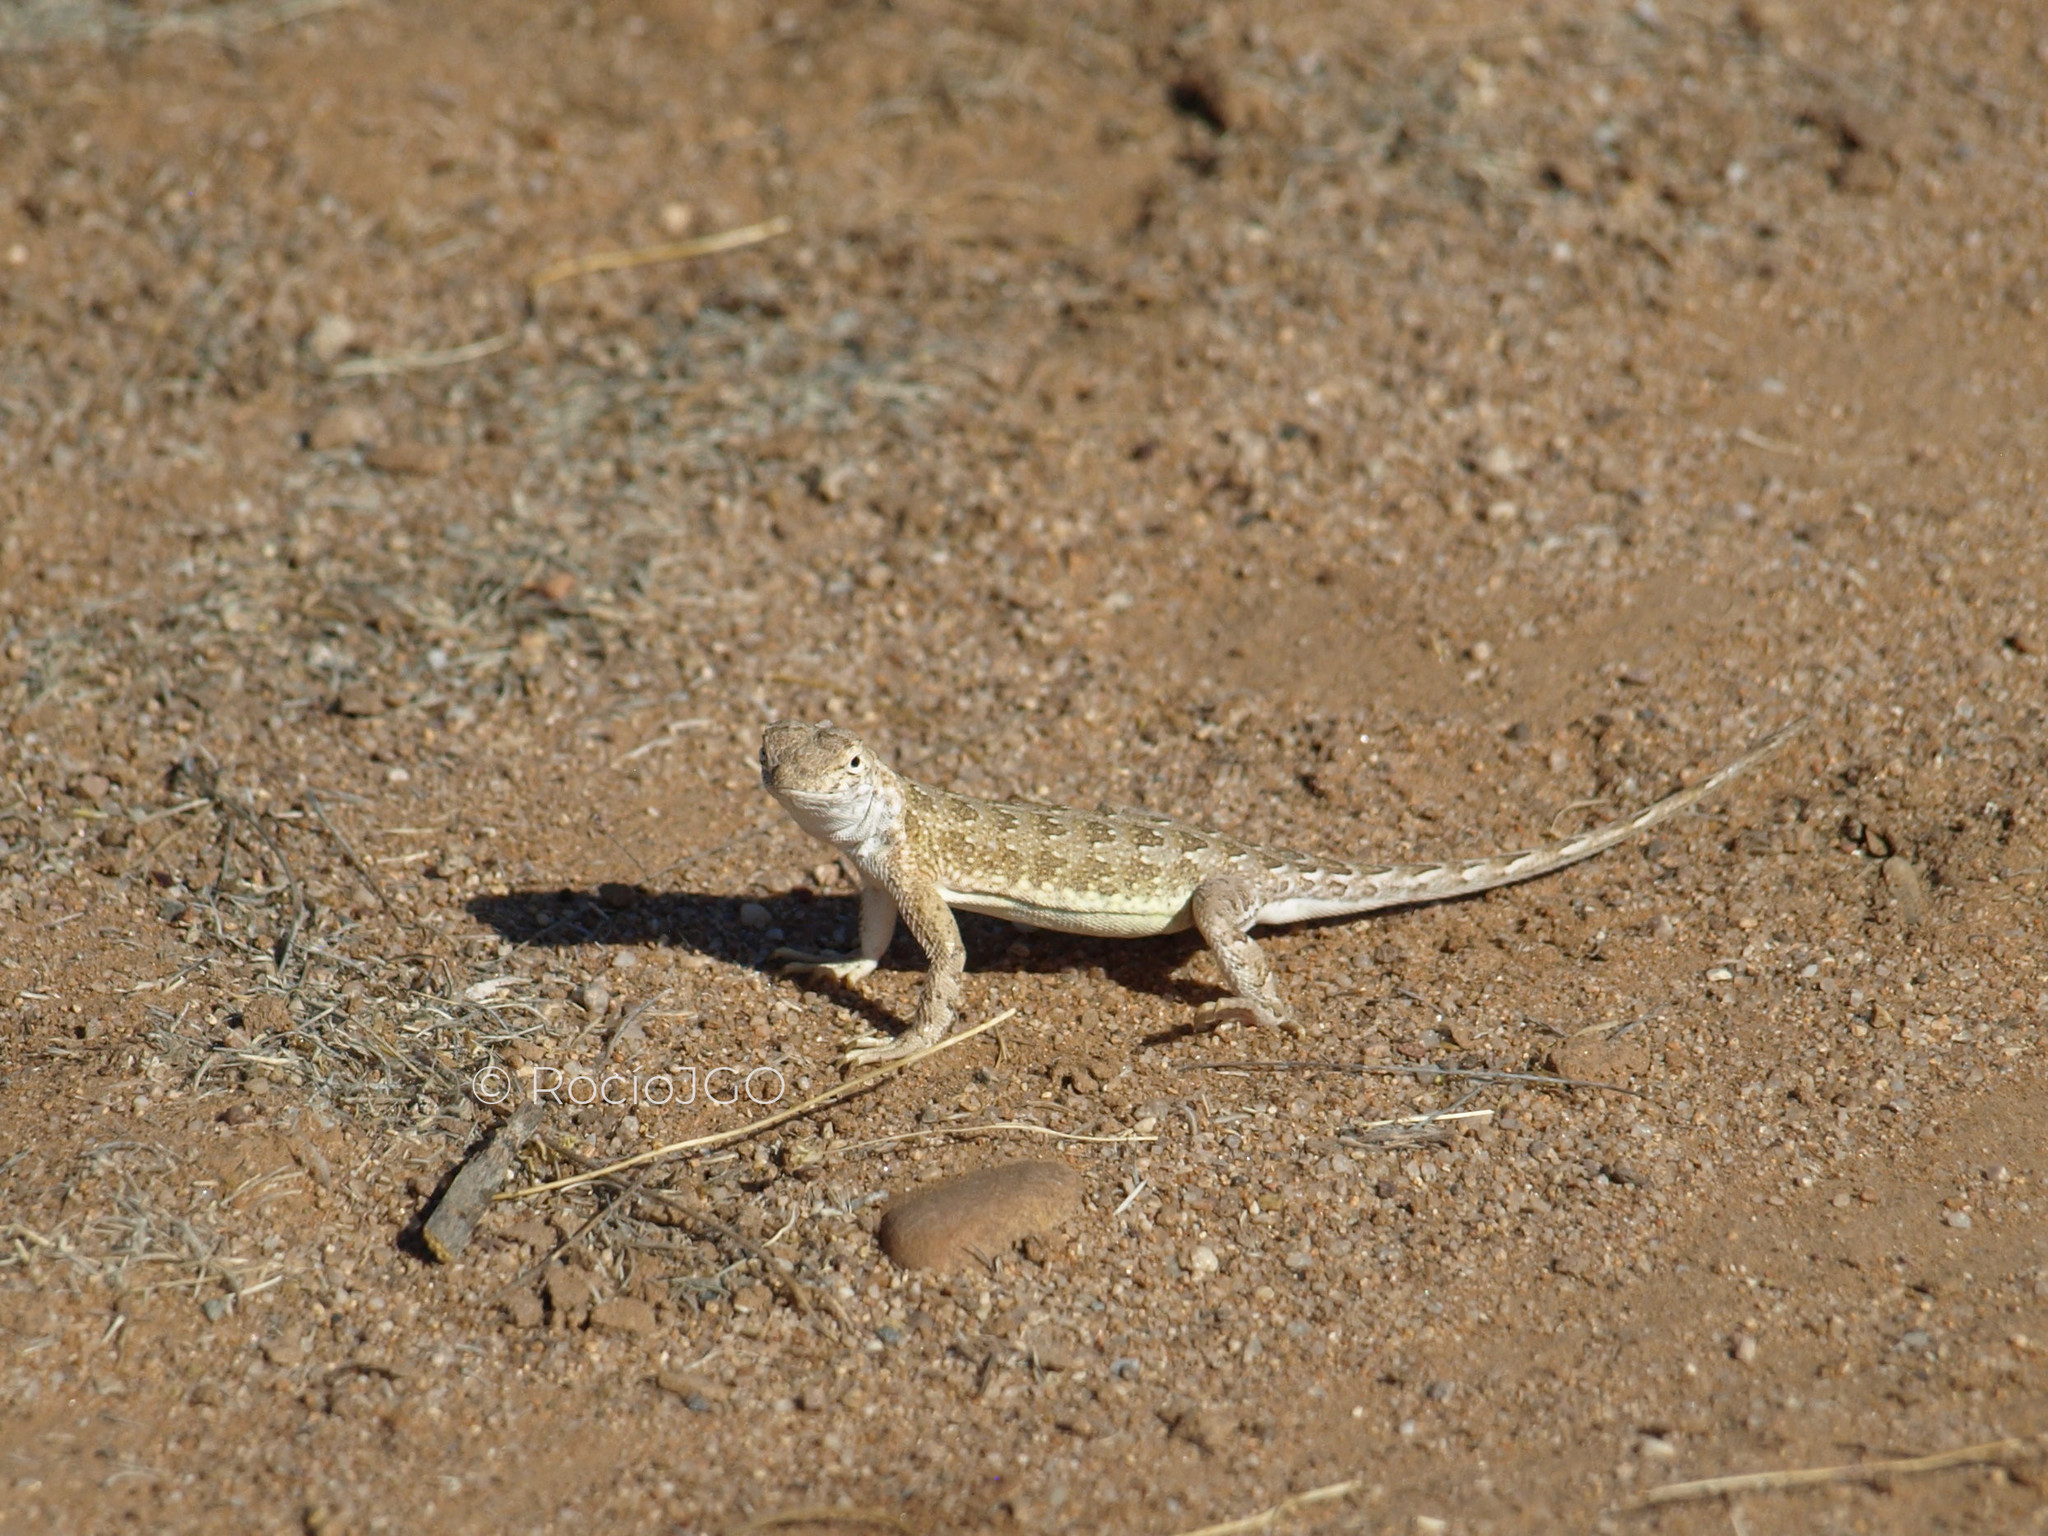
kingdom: Animalia
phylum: Chordata
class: Squamata
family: Phrynosomatidae
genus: Holbrookia
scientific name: Holbrookia elegans
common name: Elegant earless lizard
